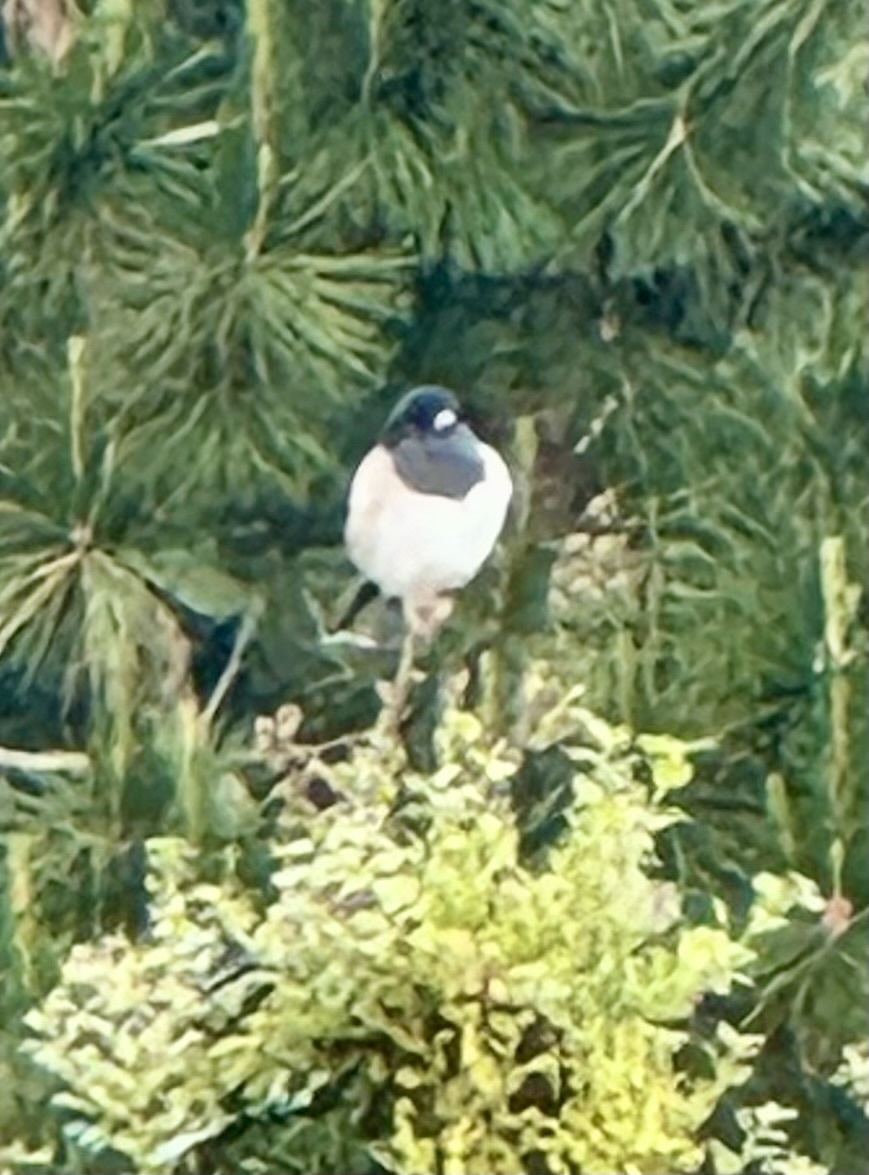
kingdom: Animalia
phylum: Chordata
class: Aves
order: Passeriformes
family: Passerellidae
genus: Junco
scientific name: Junco hyemalis
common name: Dark-eyed junco
